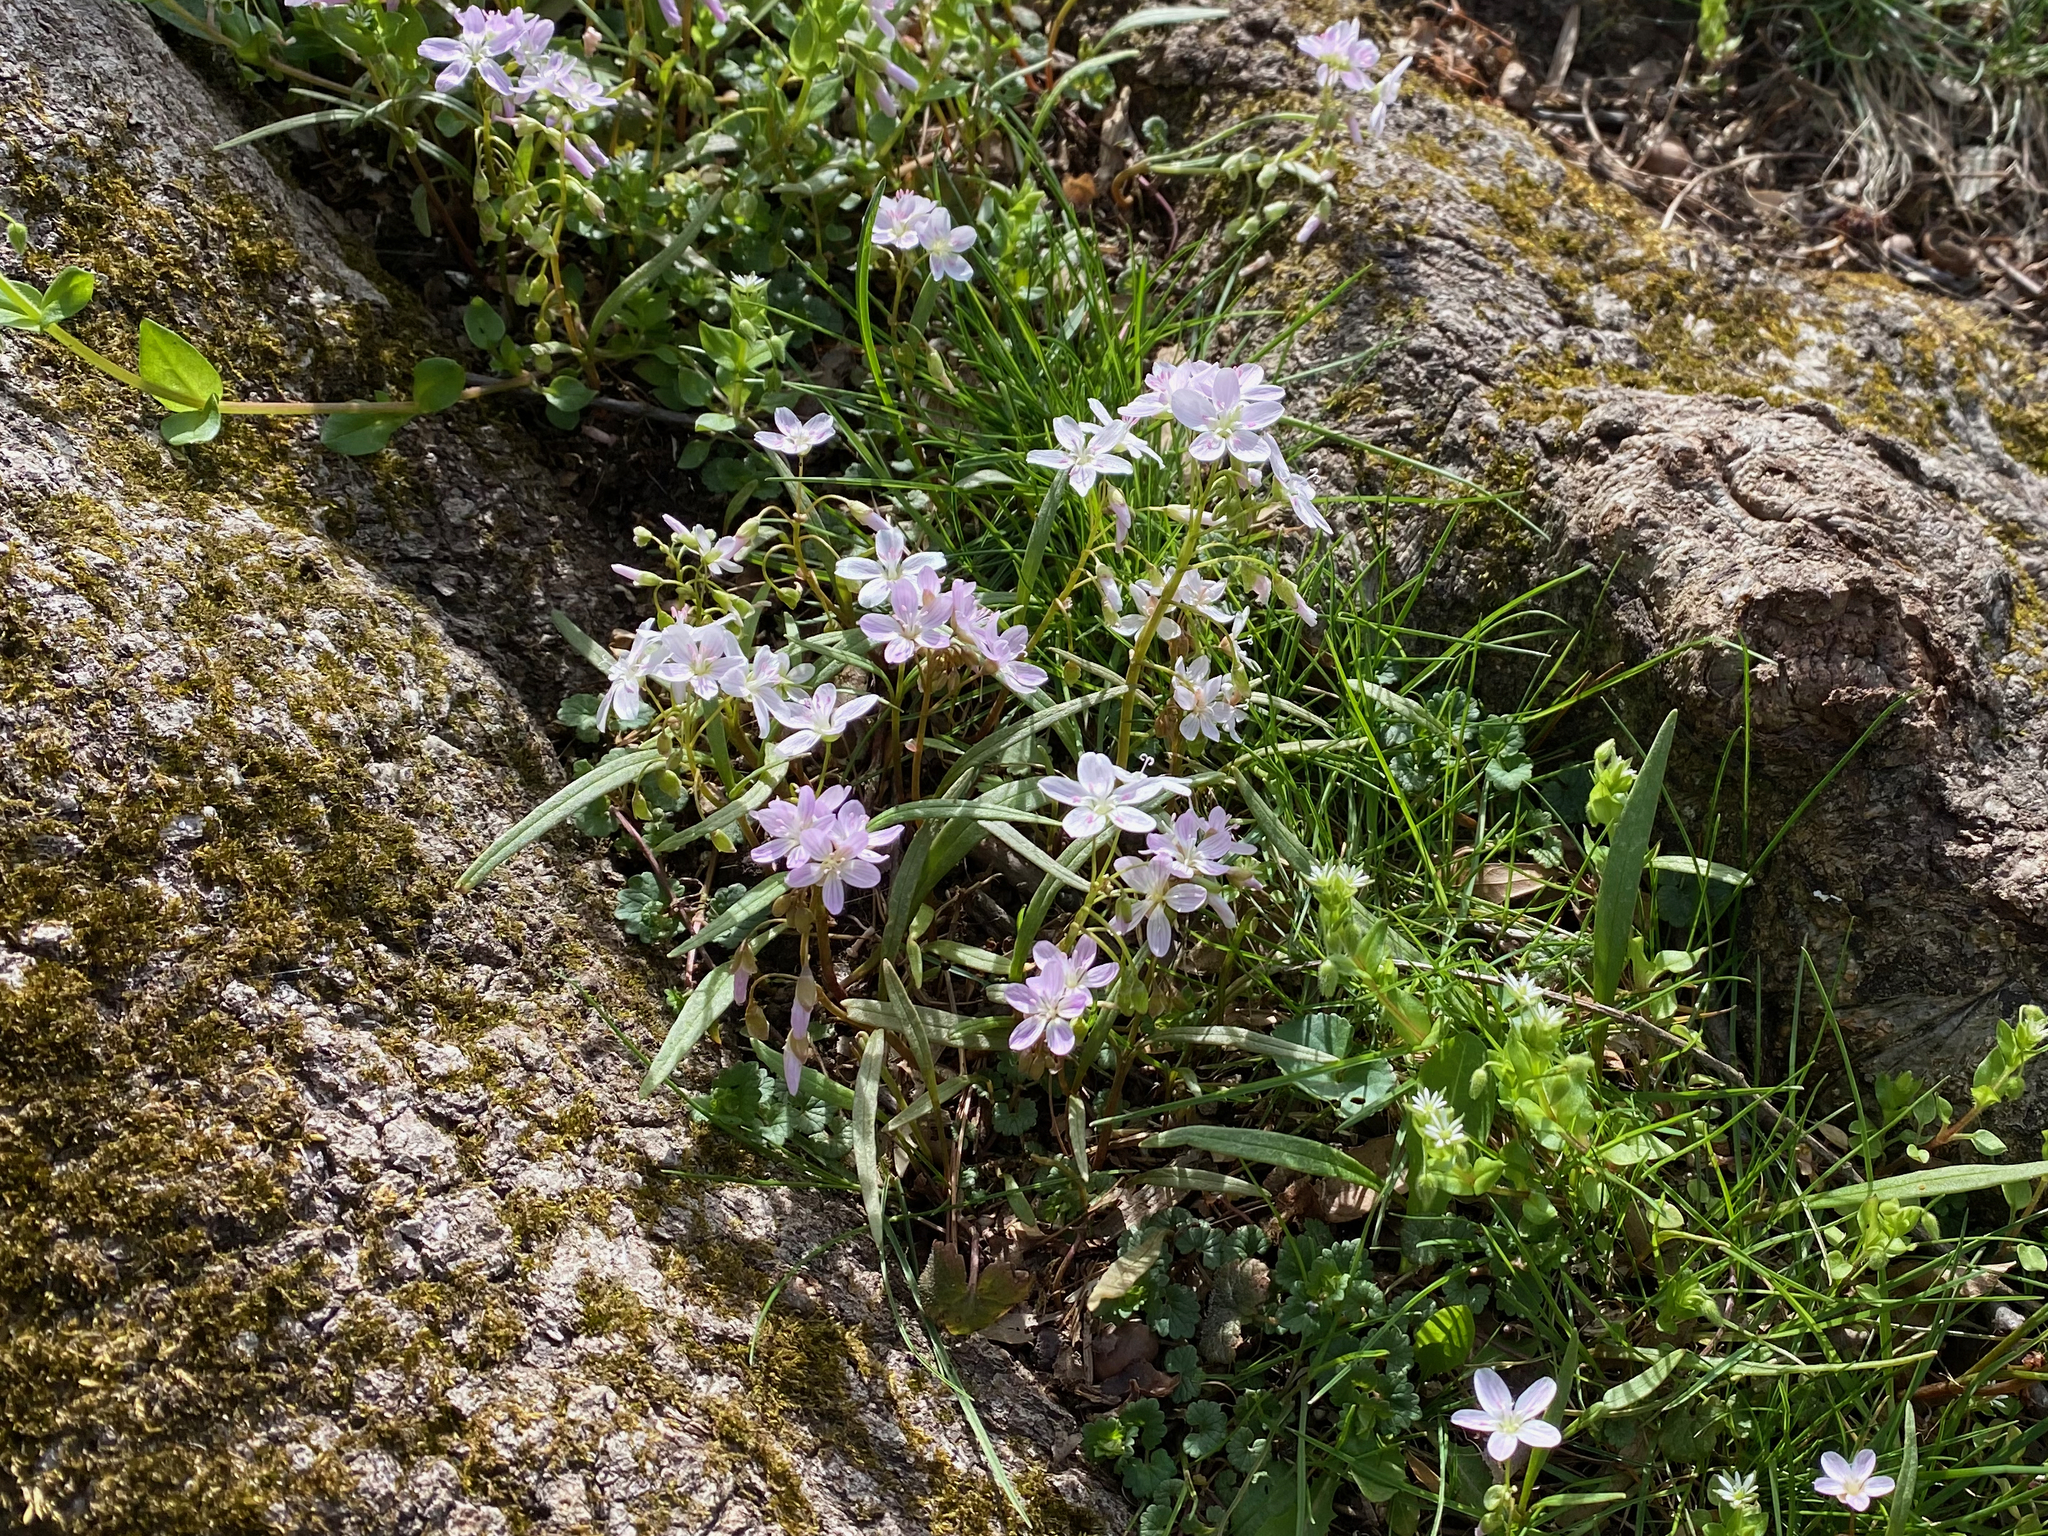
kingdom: Plantae
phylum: Tracheophyta
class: Magnoliopsida
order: Caryophyllales
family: Montiaceae
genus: Claytonia
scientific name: Claytonia virginica
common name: Virginia springbeauty
